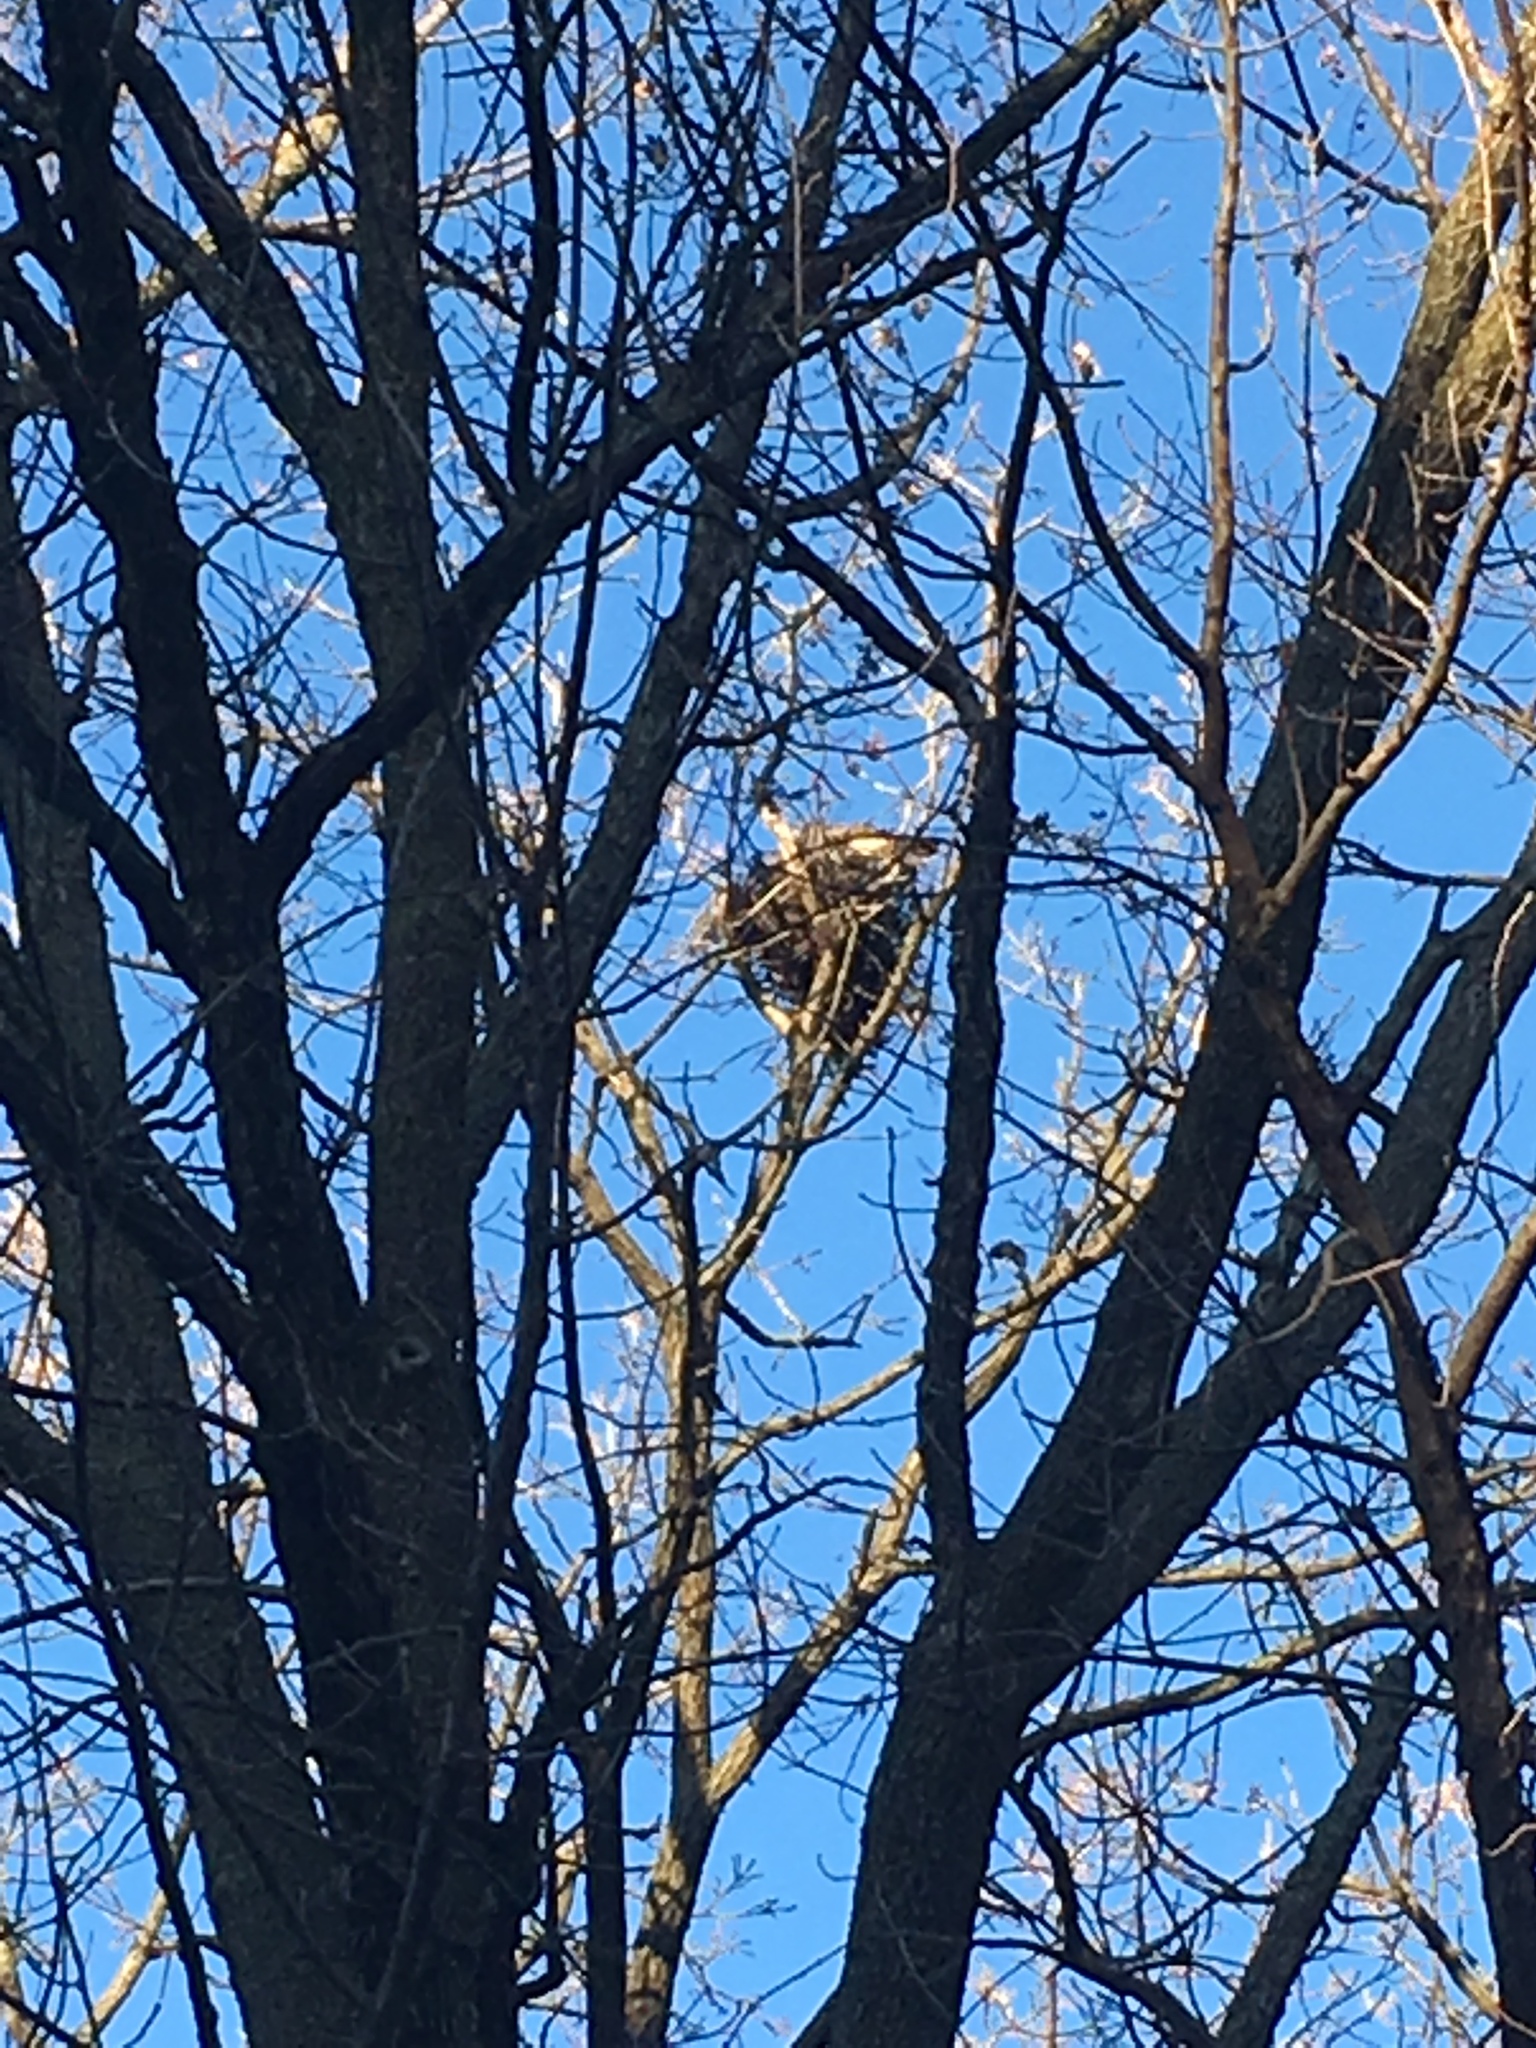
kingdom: Animalia
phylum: Chordata
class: Aves
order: Accipitriformes
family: Accipitridae
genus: Accipiter
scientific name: Accipiter cooperii
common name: Cooper's hawk
